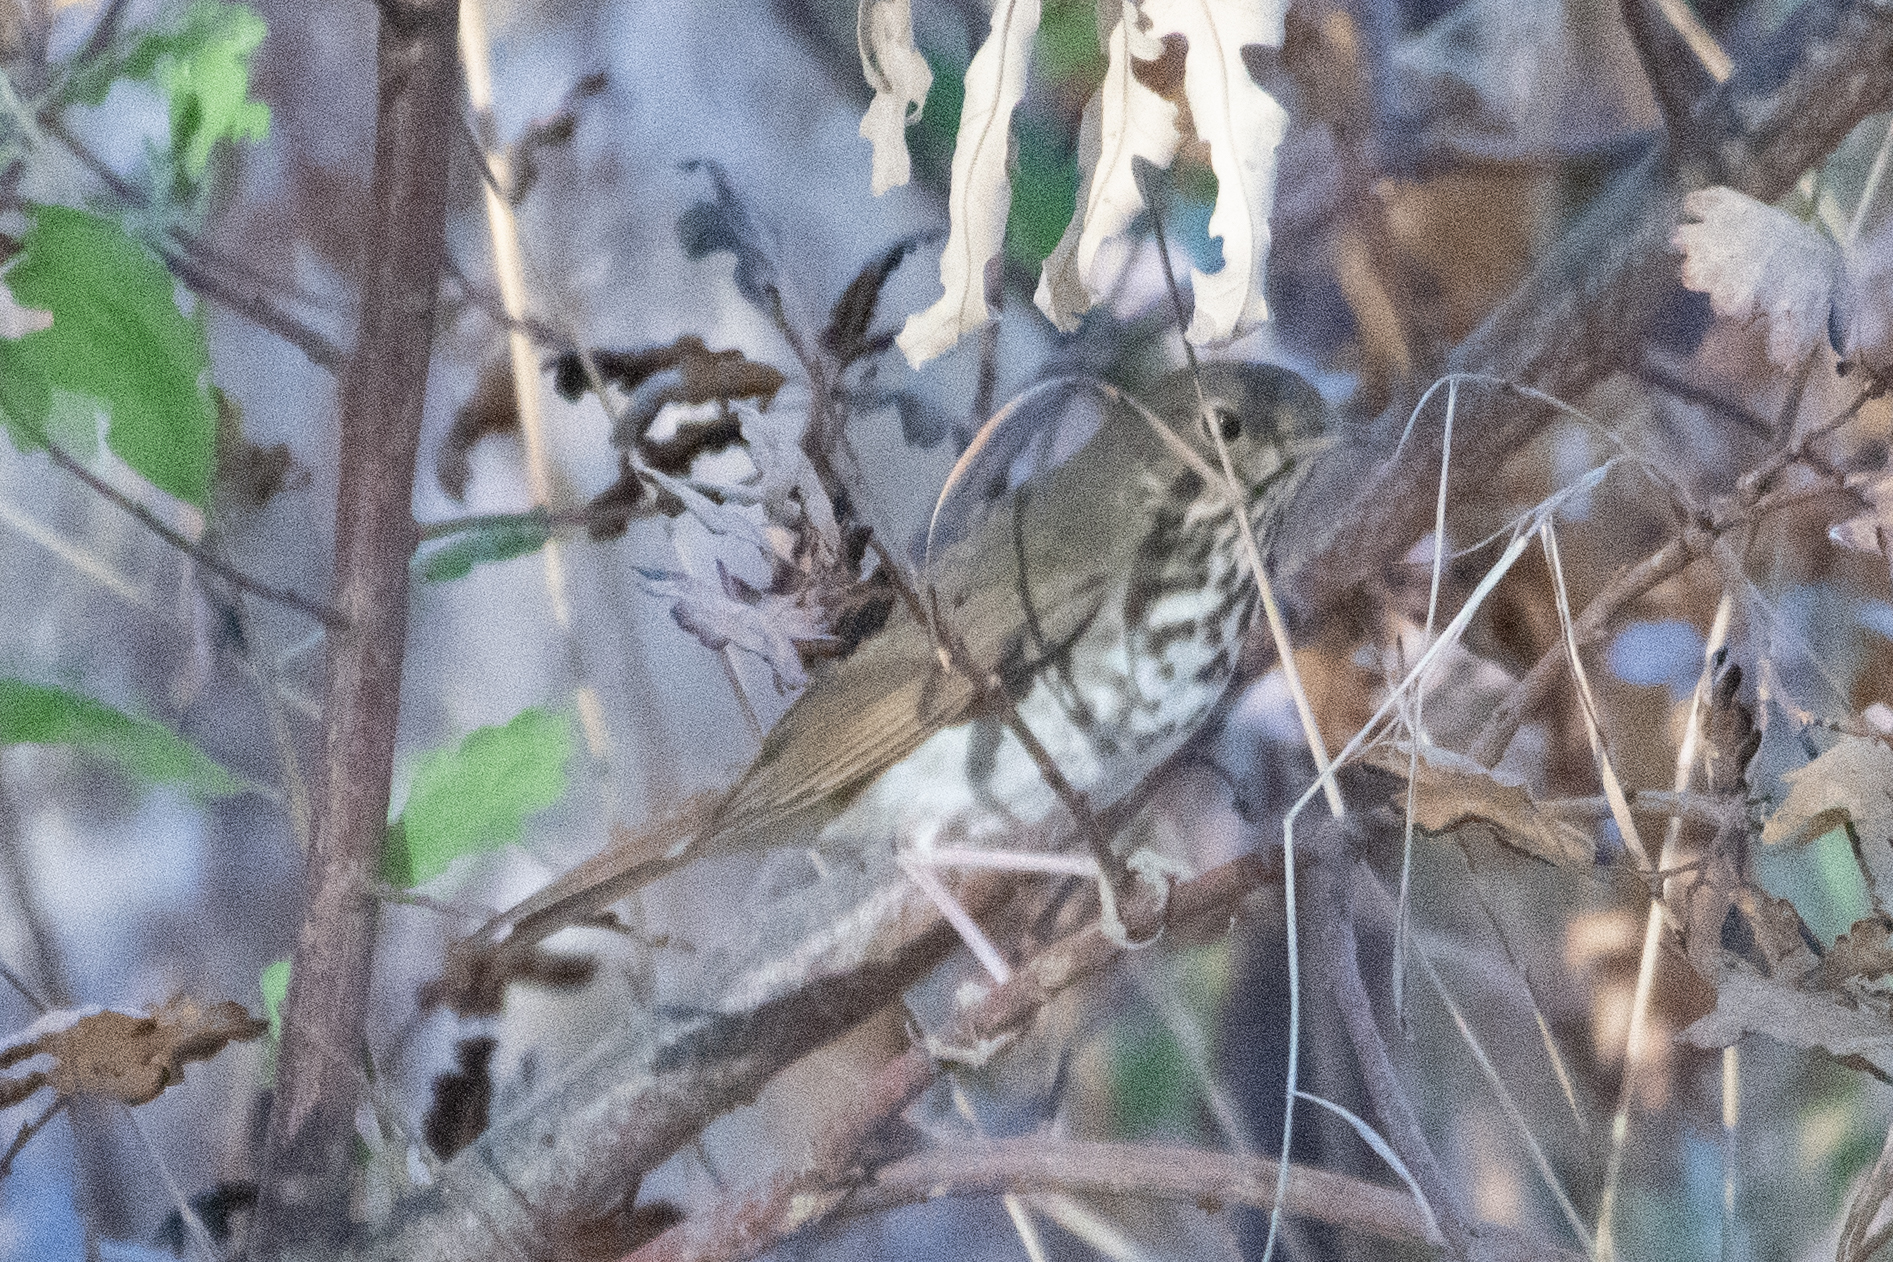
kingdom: Animalia
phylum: Chordata
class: Aves
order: Passeriformes
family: Turdidae
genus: Catharus
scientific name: Catharus guttatus
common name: Hermit thrush
